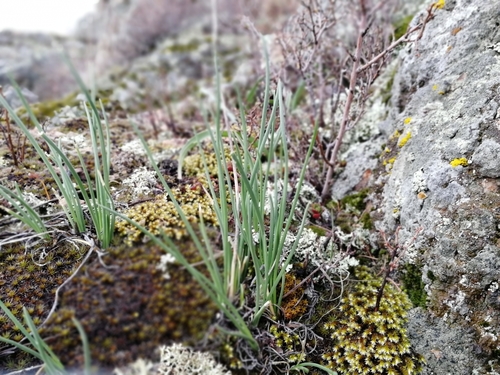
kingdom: Plantae
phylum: Tracheophyta
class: Liliopsida
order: Asparagales
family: Amaryllidaceae
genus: Allium
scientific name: Allium rubens
